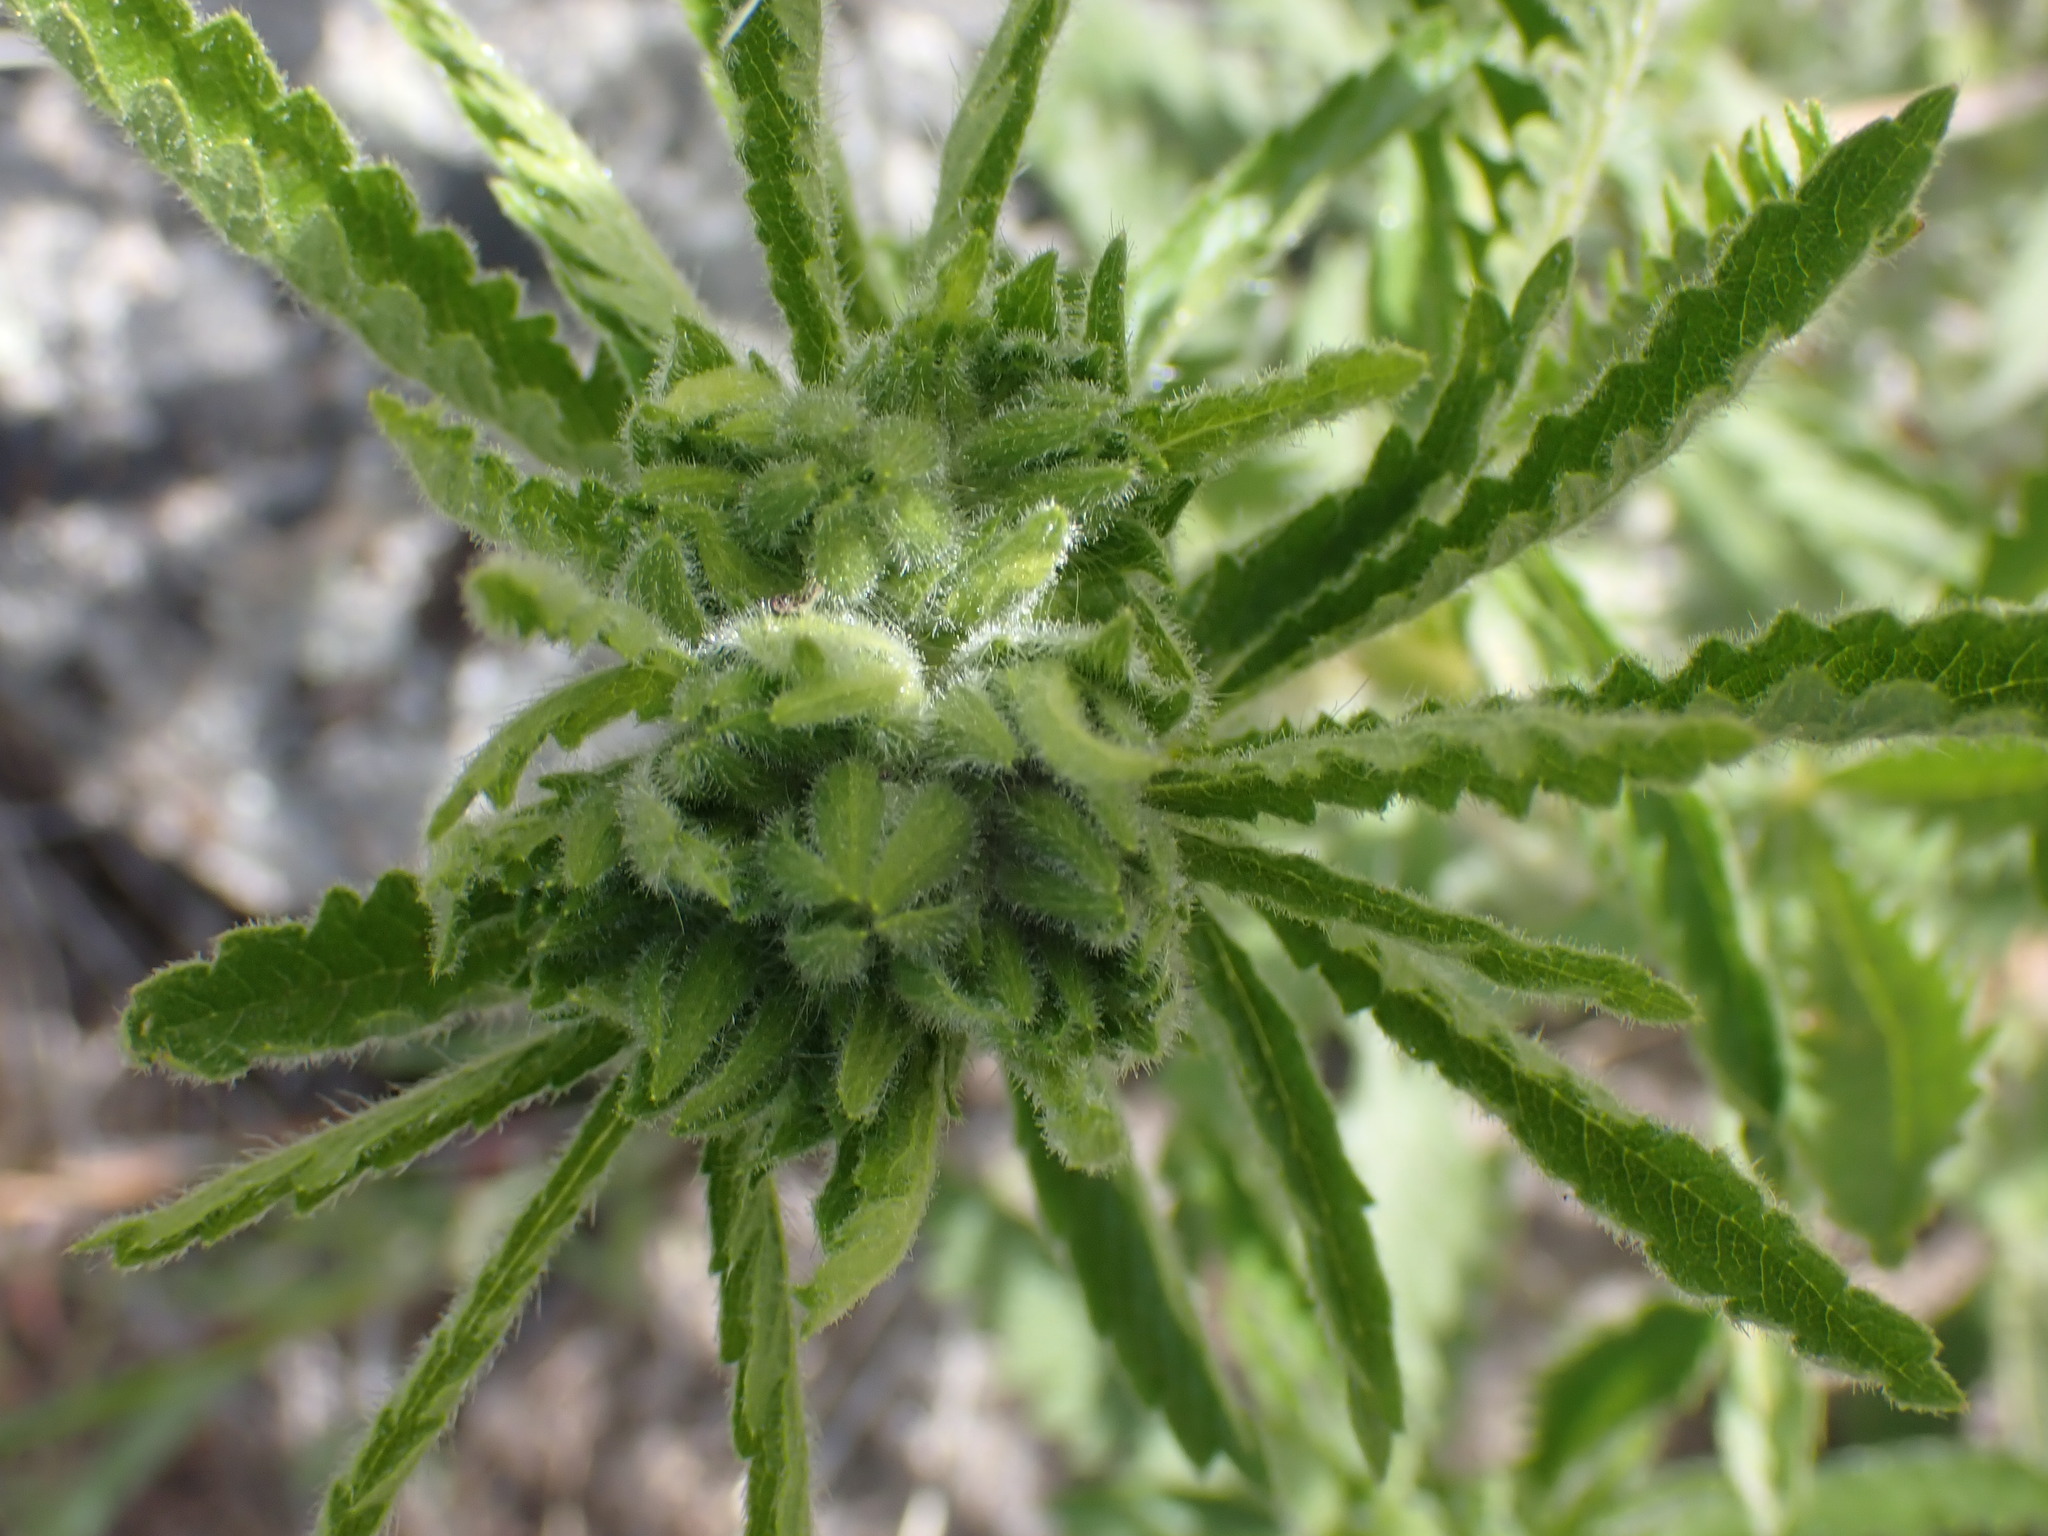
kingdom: Plantae
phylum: Tracheophyta
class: Magnoliopsida
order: Rosales
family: Rosaceae
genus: Potentilla
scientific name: Potentilla recta
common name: Sulphur cinquefoil
